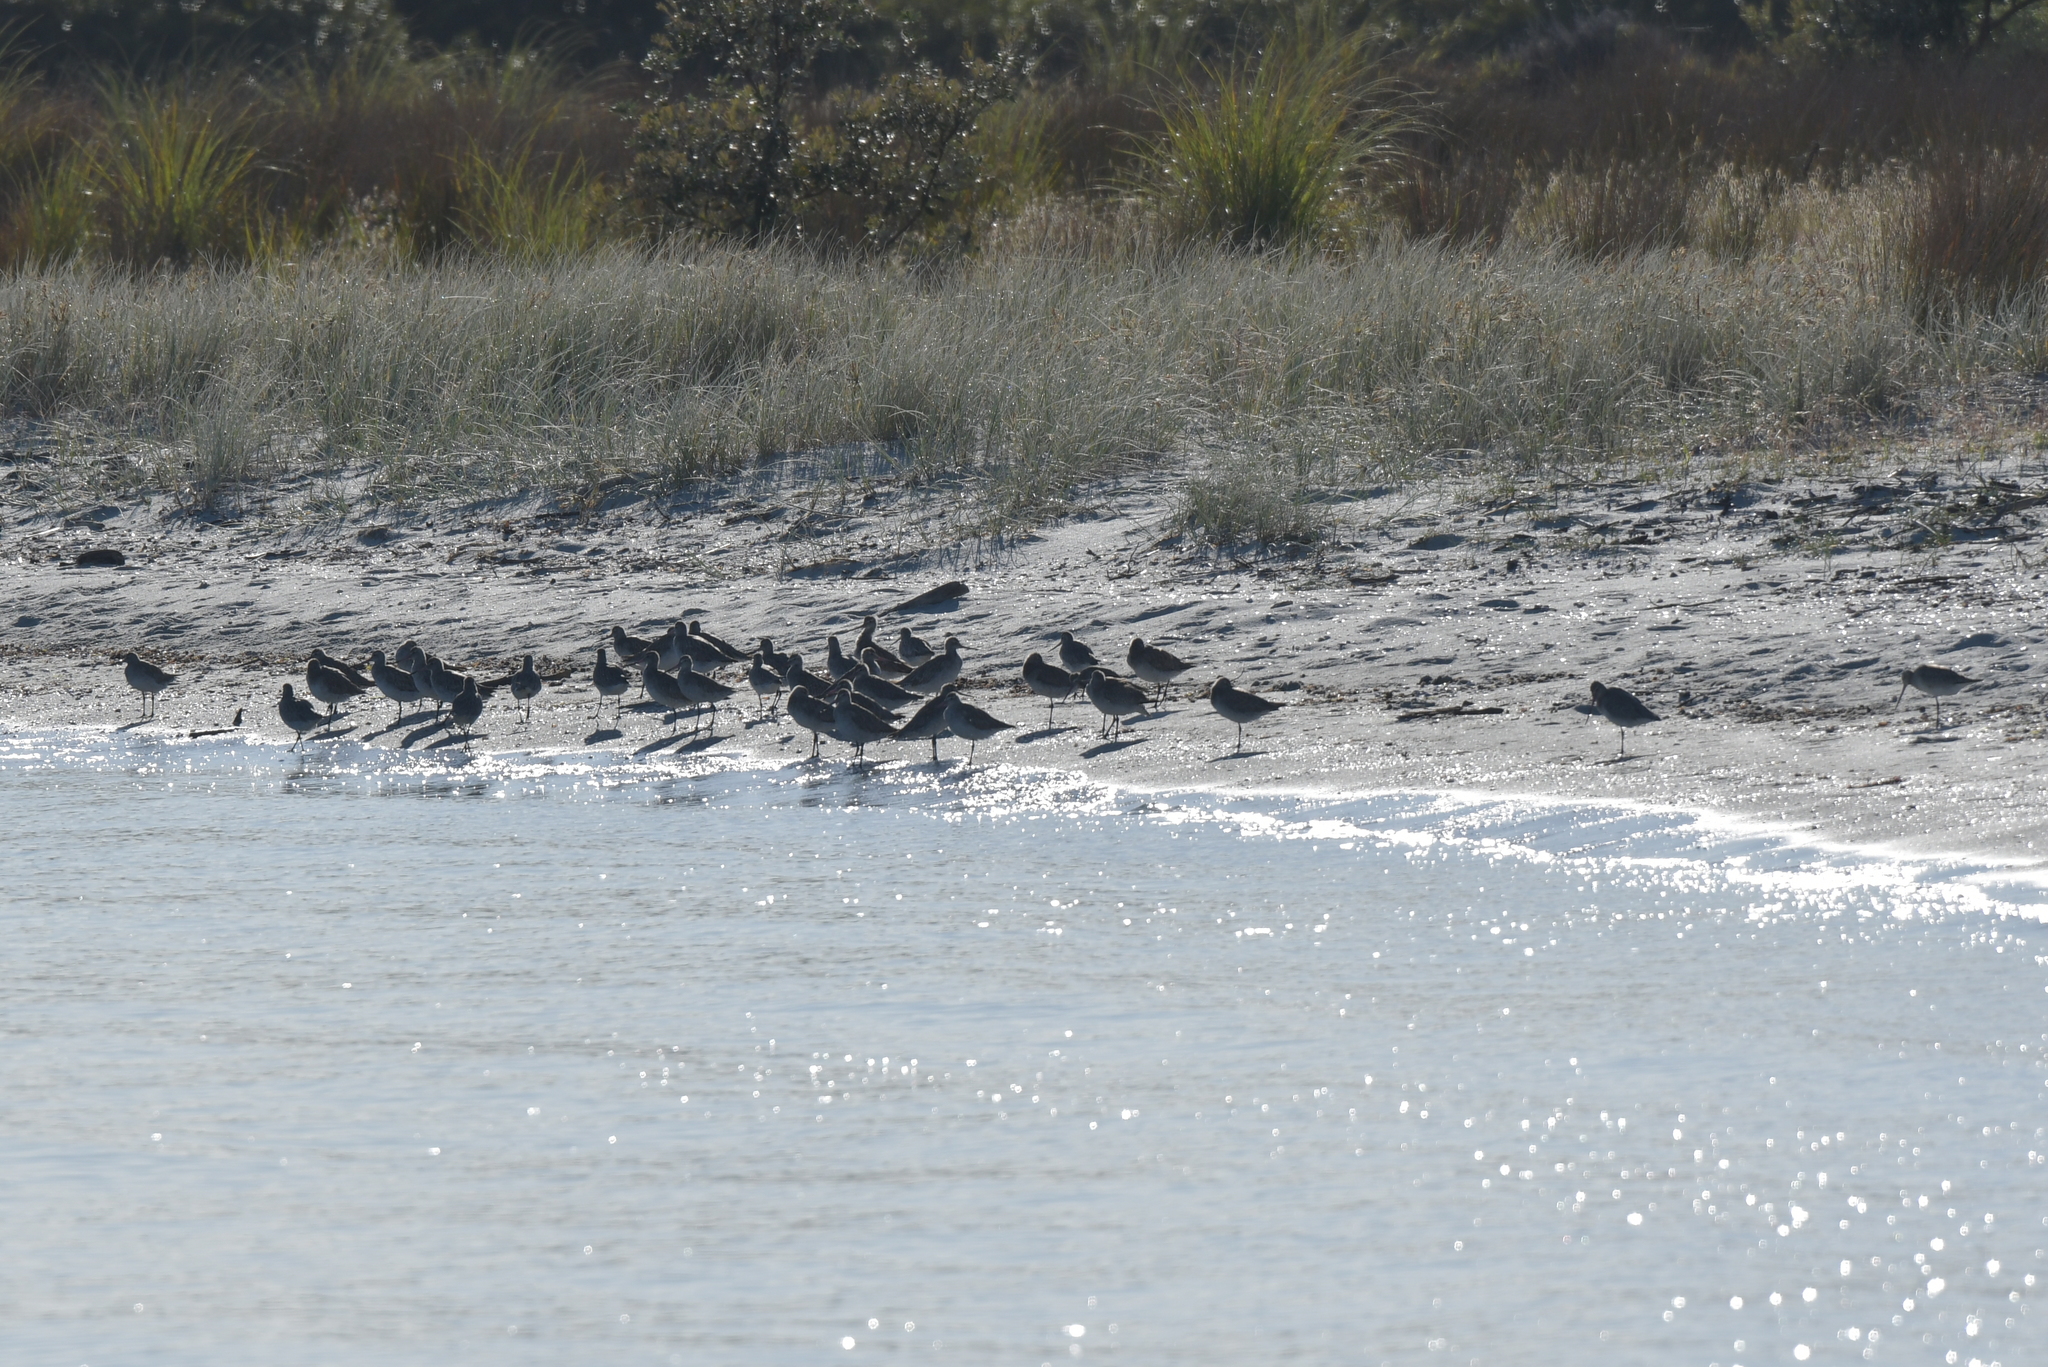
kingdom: Animalia
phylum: Chordata
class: Aves
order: Charadriiformes
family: Scolopacidae
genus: Limosa
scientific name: Limosa lapponica
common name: Bar-tailed godwit
